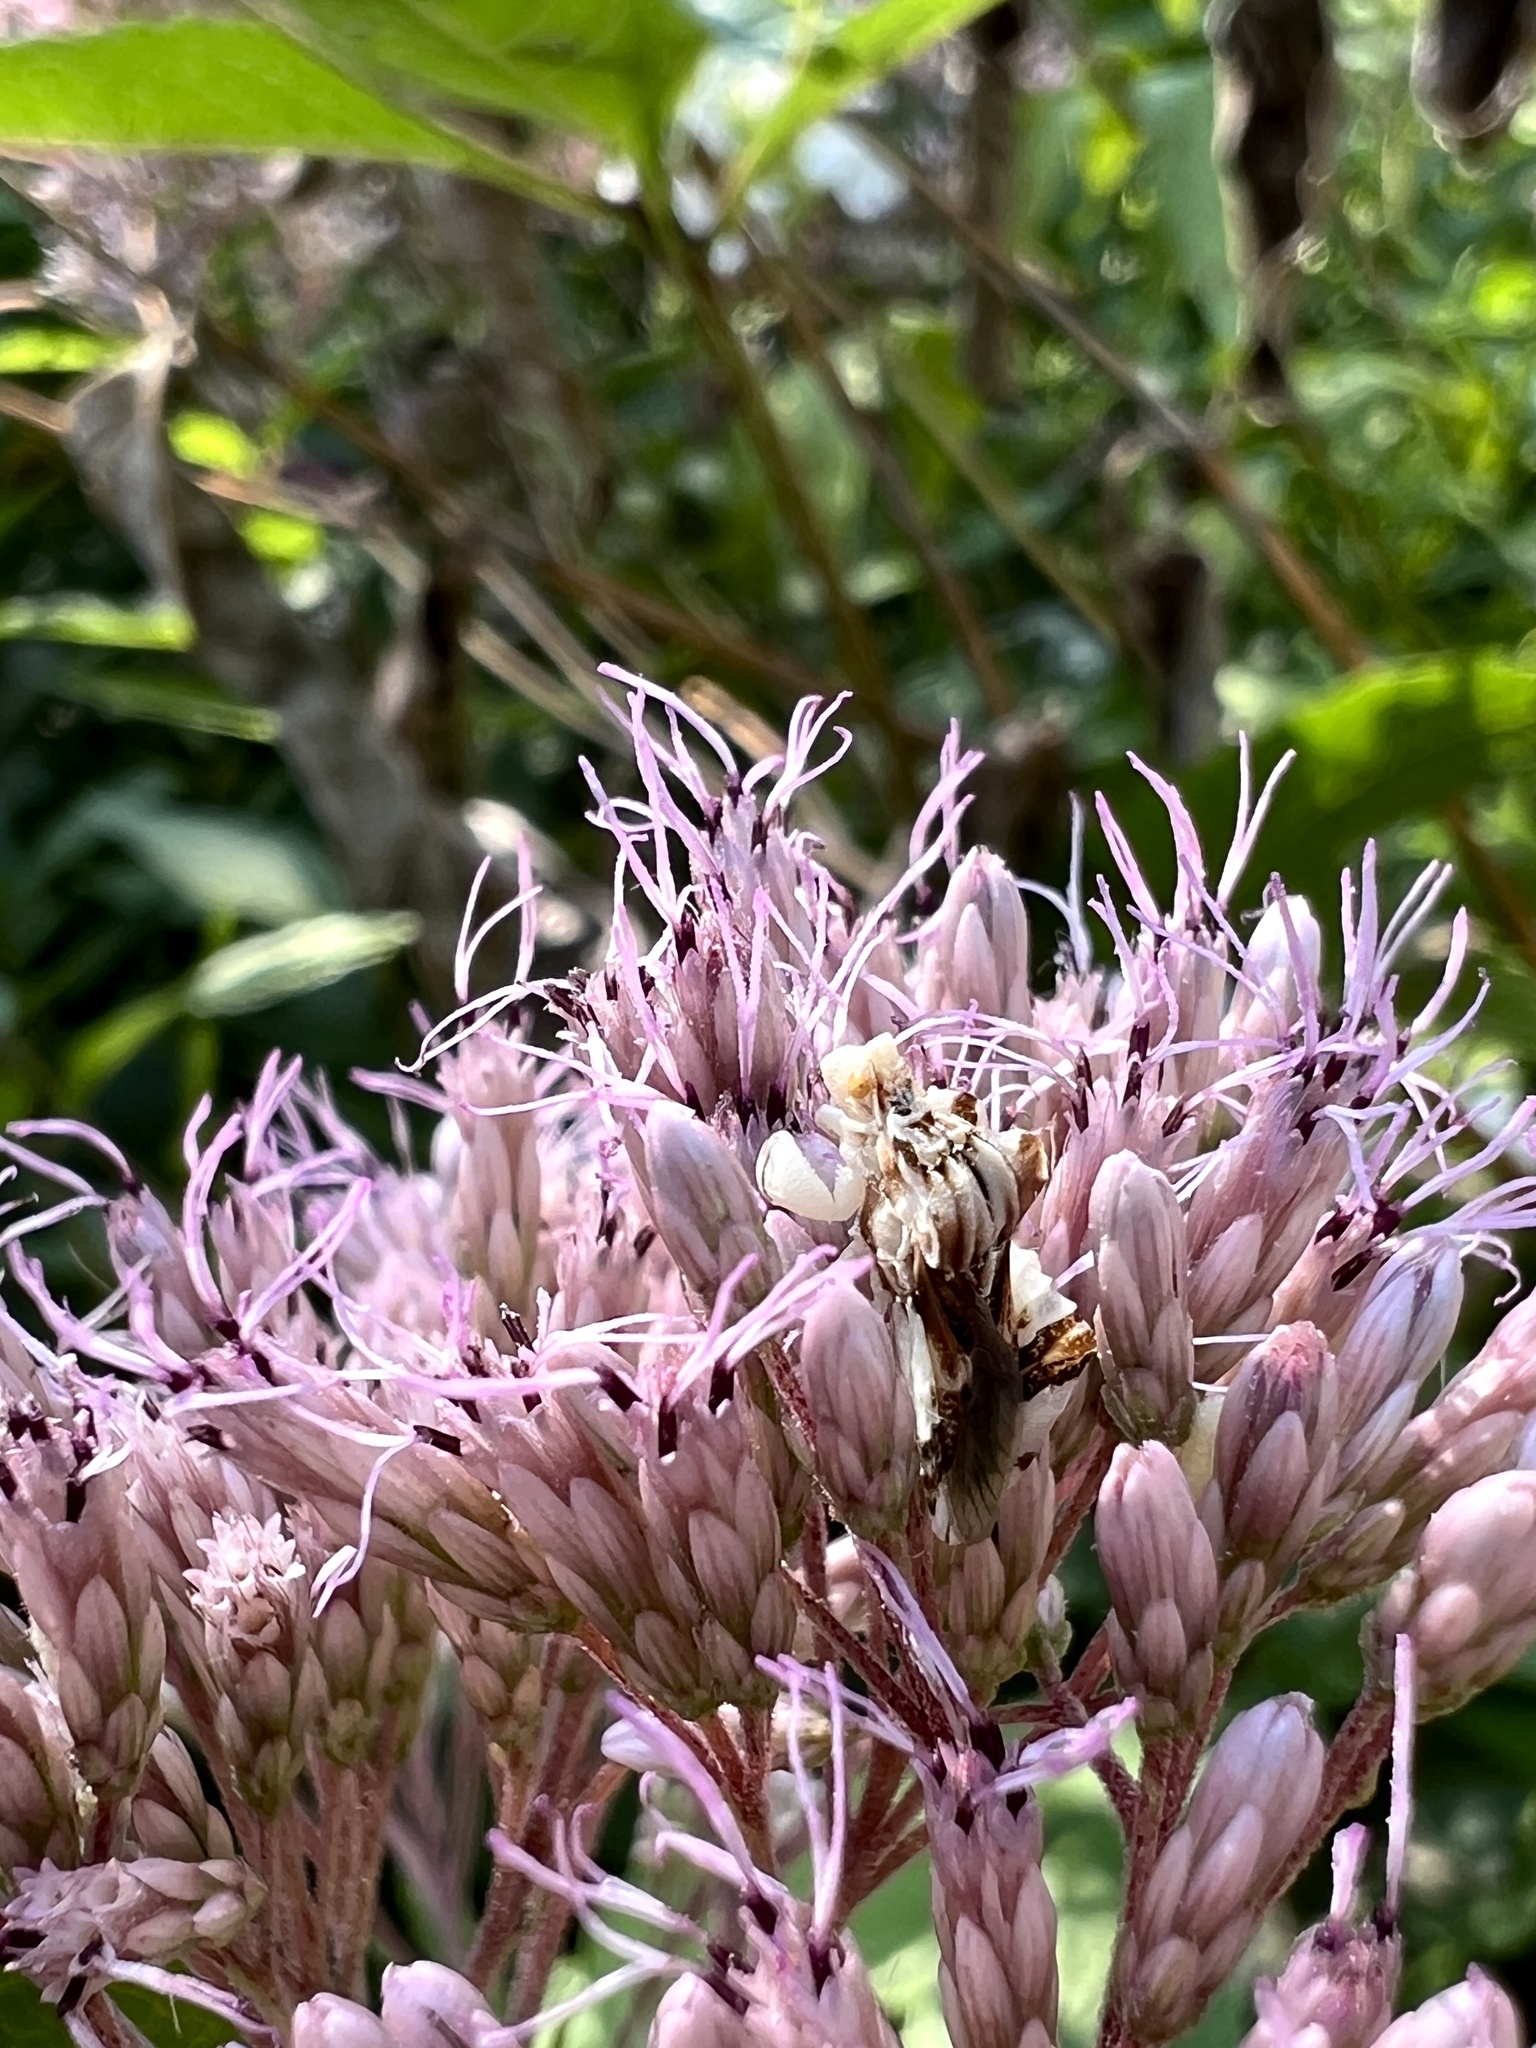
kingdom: Animalia
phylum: Arthropoda
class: Insecta
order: Hemiptera
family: Reduviidae
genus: Phymata
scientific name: Phymata fasciata
